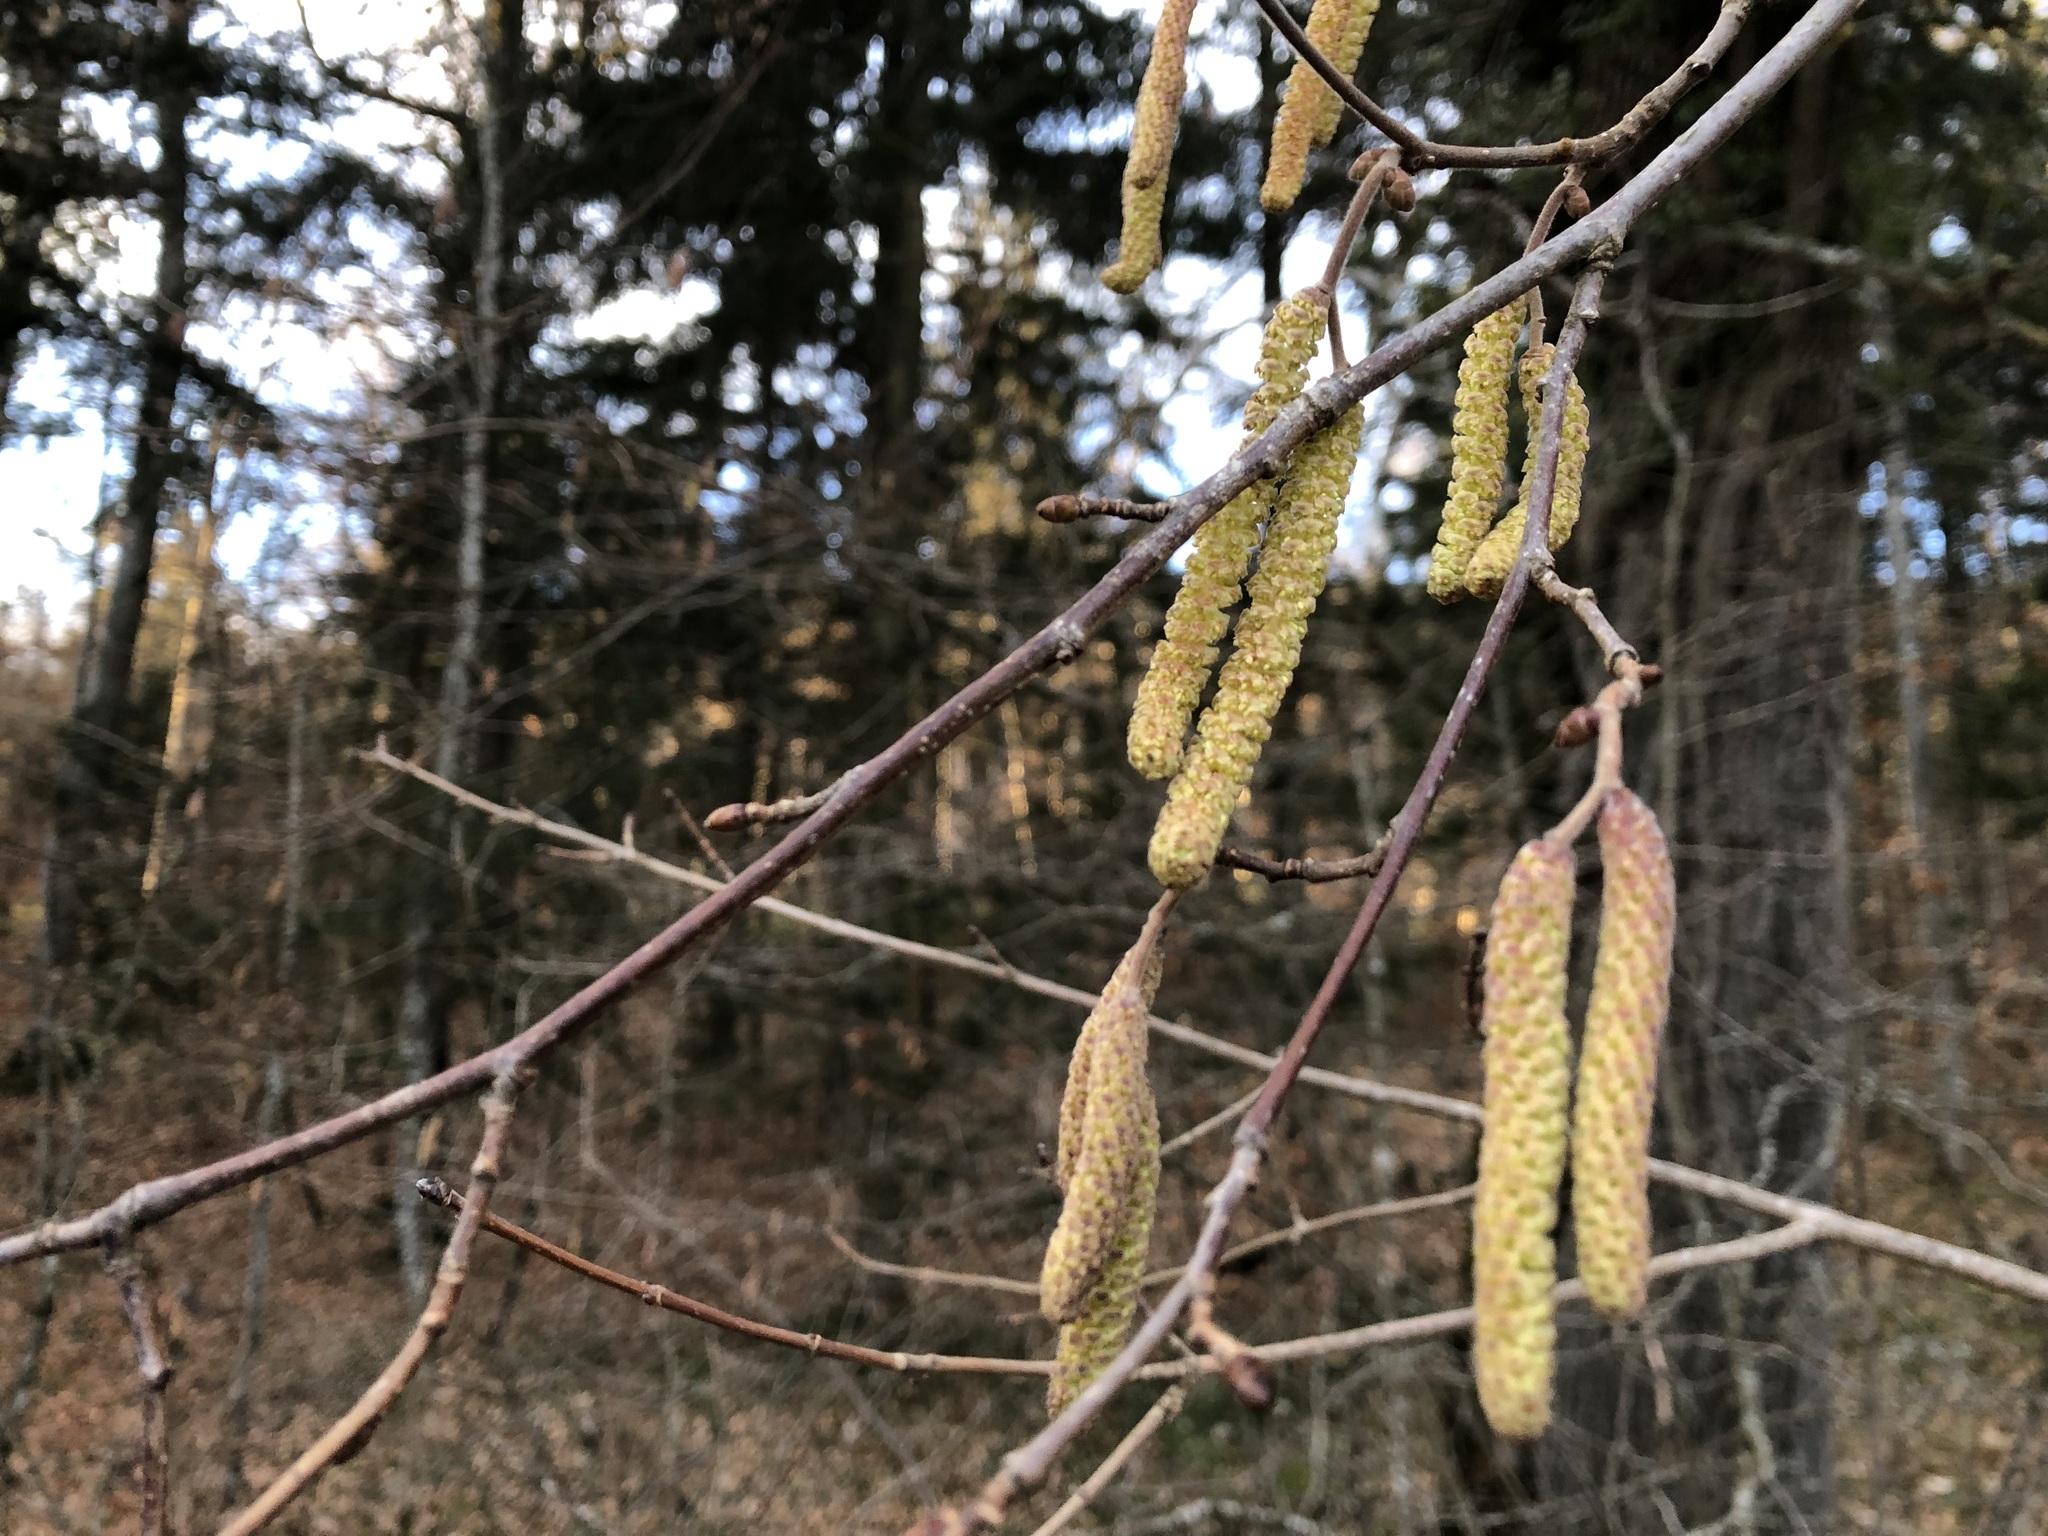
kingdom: Plantae
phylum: Tracheophyta
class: Magnoliopsida
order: Fagales
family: Betulaceae
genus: Corylus
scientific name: Corylus avellana
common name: European hazel
